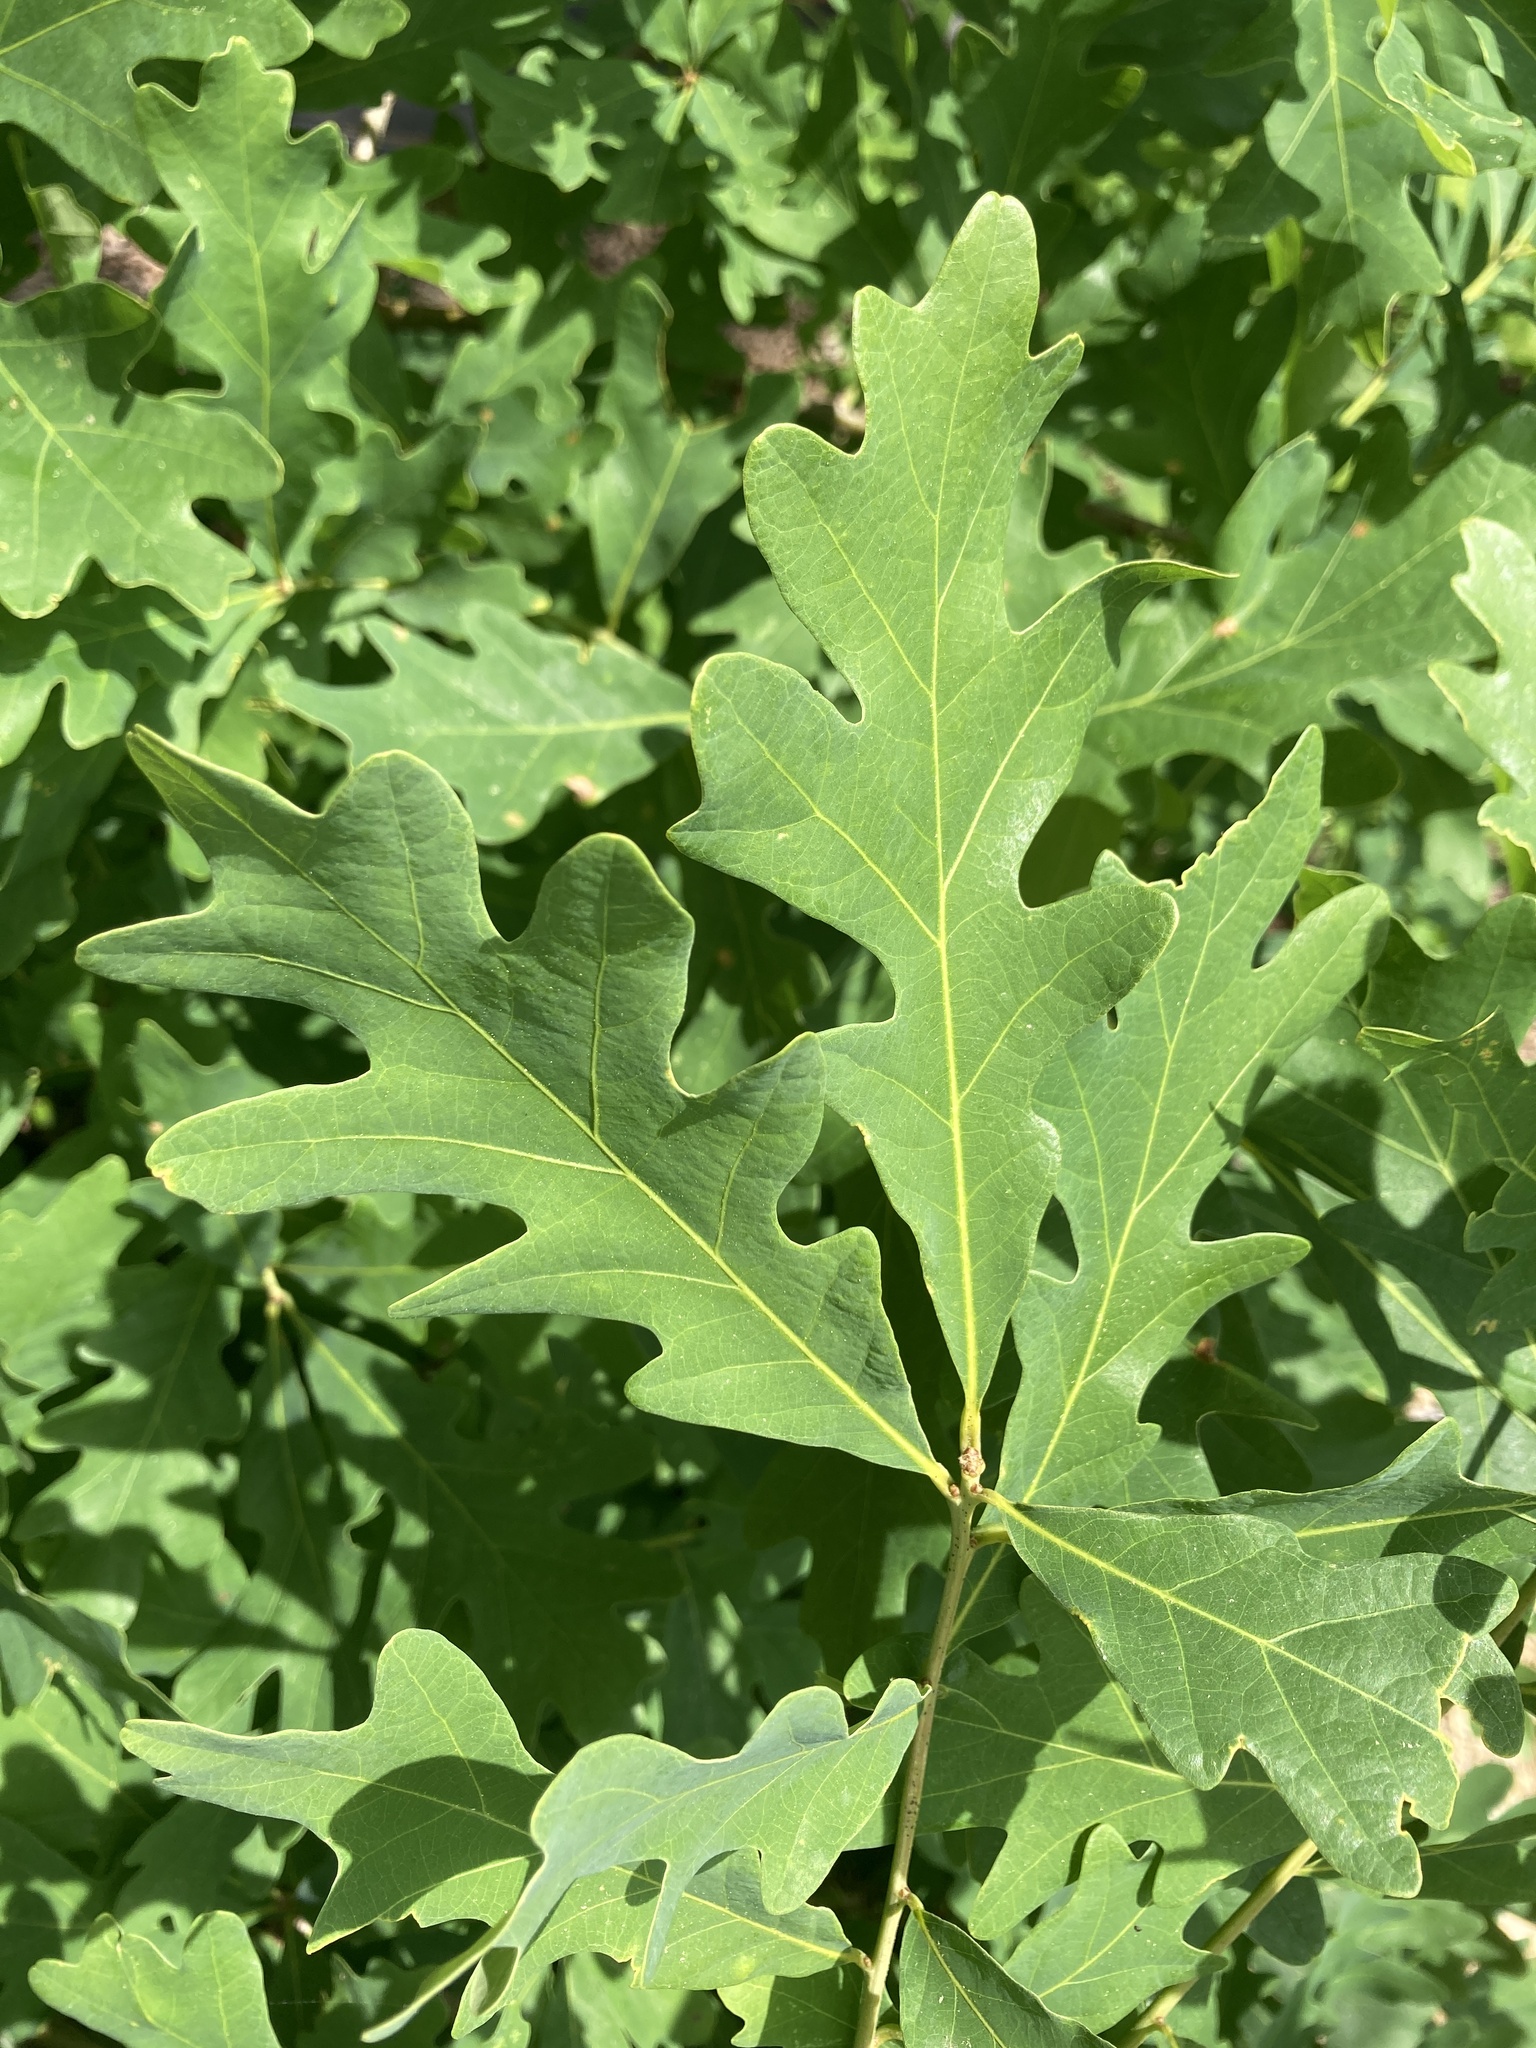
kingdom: Plantae
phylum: Tracheophyta
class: Magnoliopsida
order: Fagales
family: Fagaceae
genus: Quercus
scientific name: Quercus alba
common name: White oak
